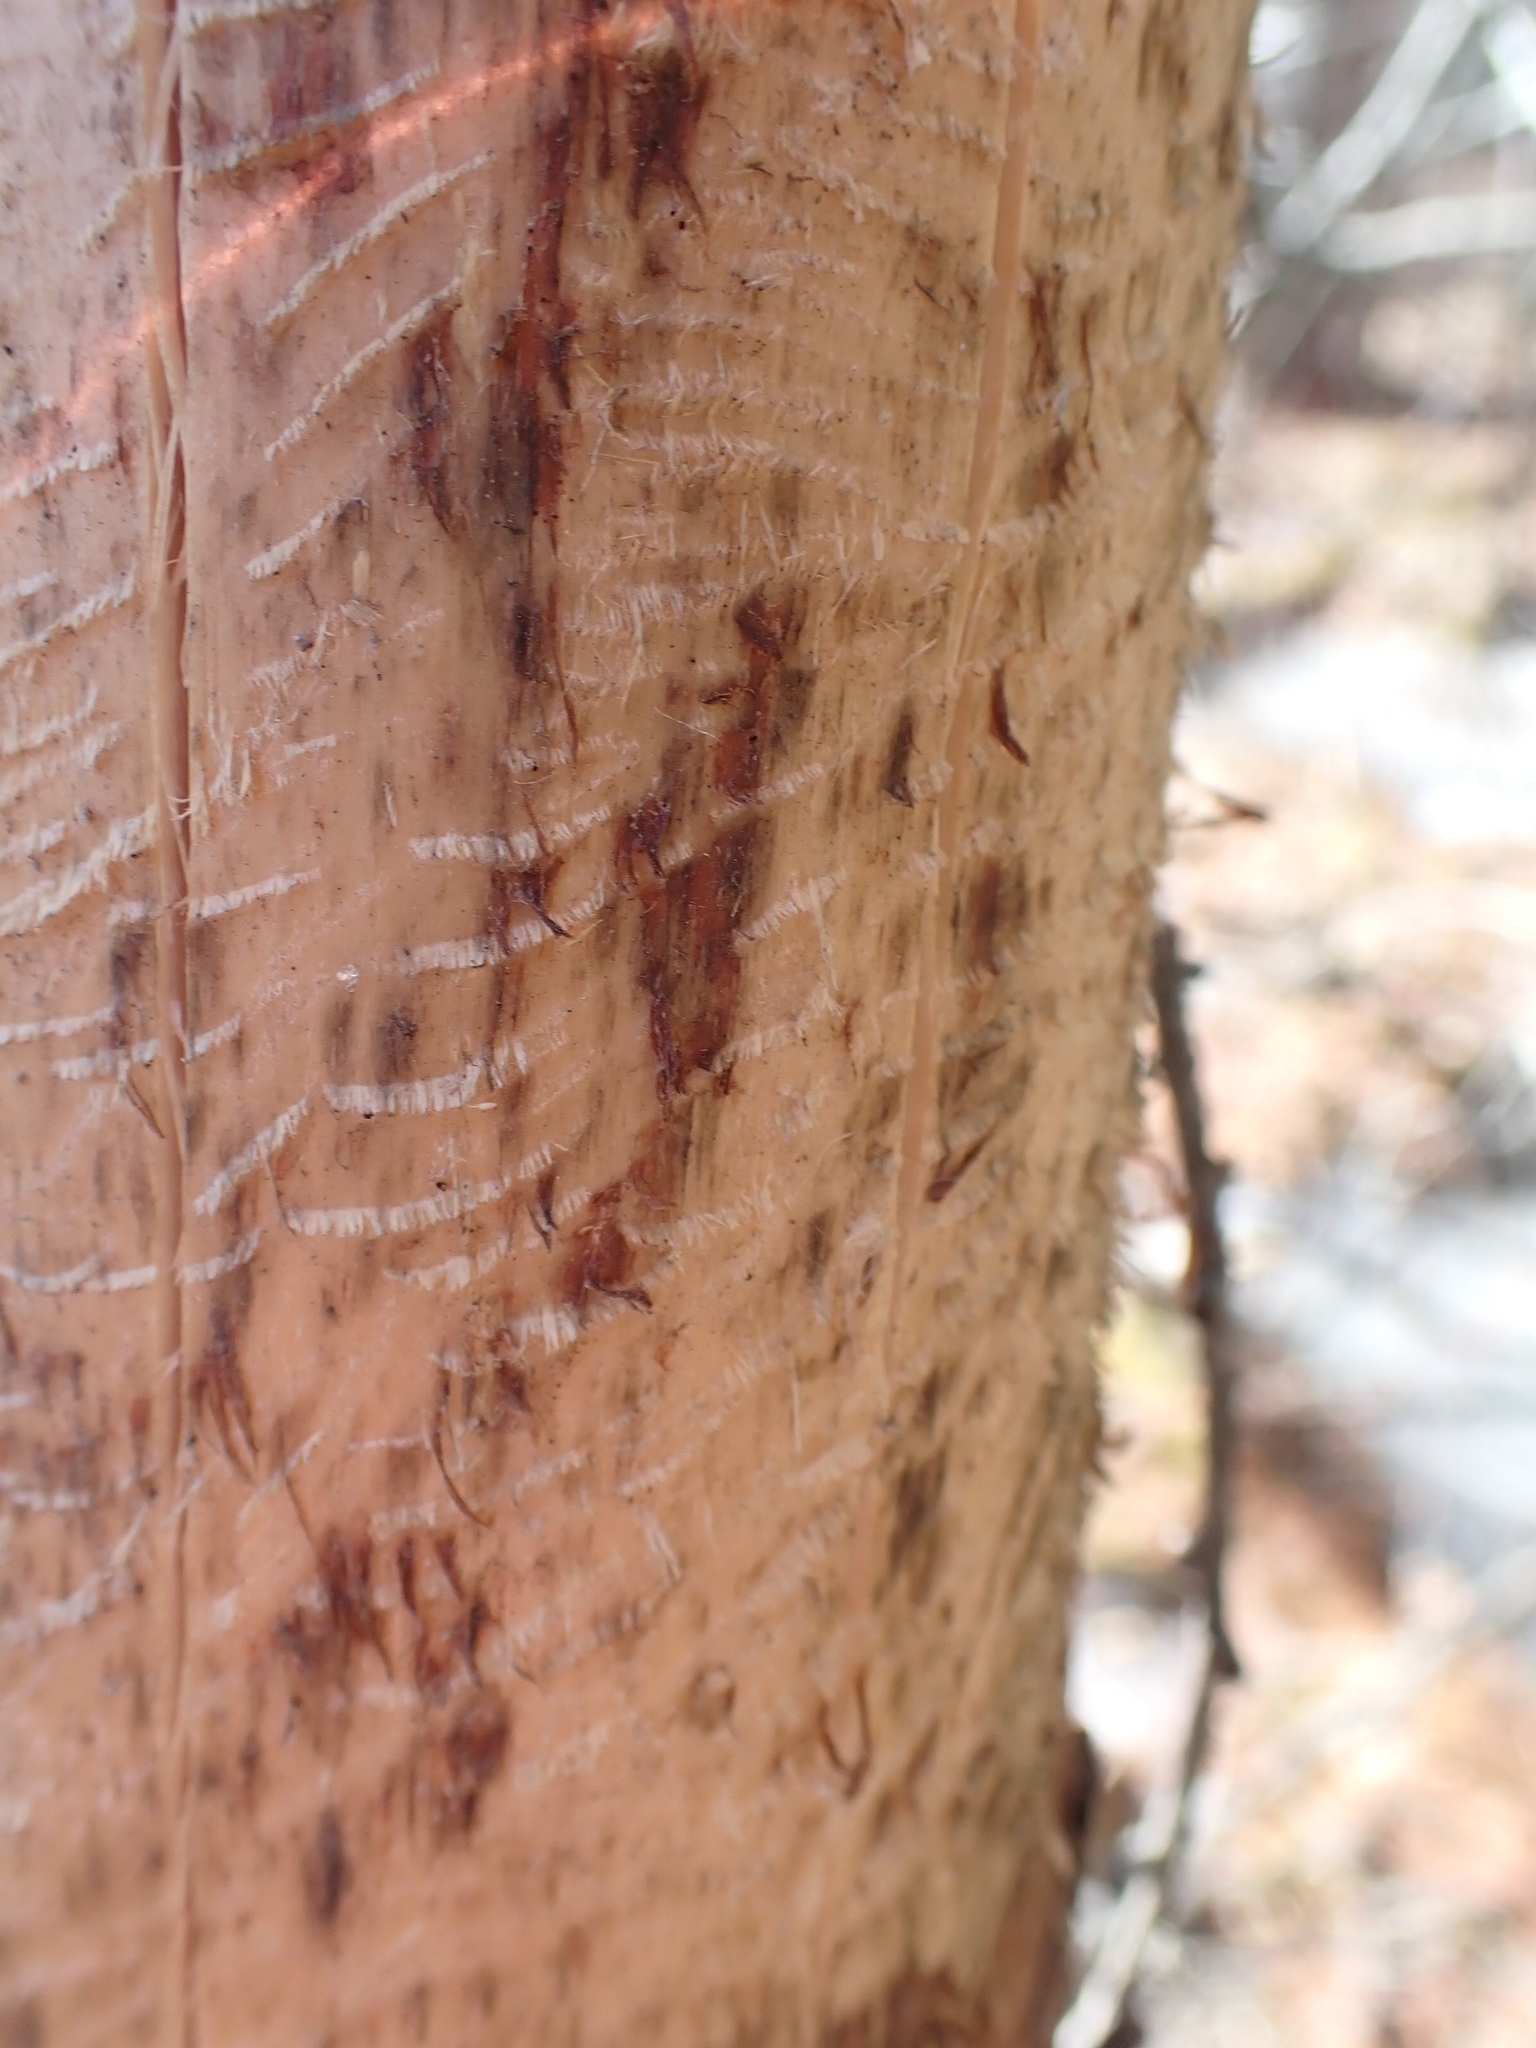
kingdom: Animalia
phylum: Chordata
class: Mammalia
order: Rodentia
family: Erethizontidae
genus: Erethizon
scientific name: Erethizon dorsatus
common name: North american porcupine
